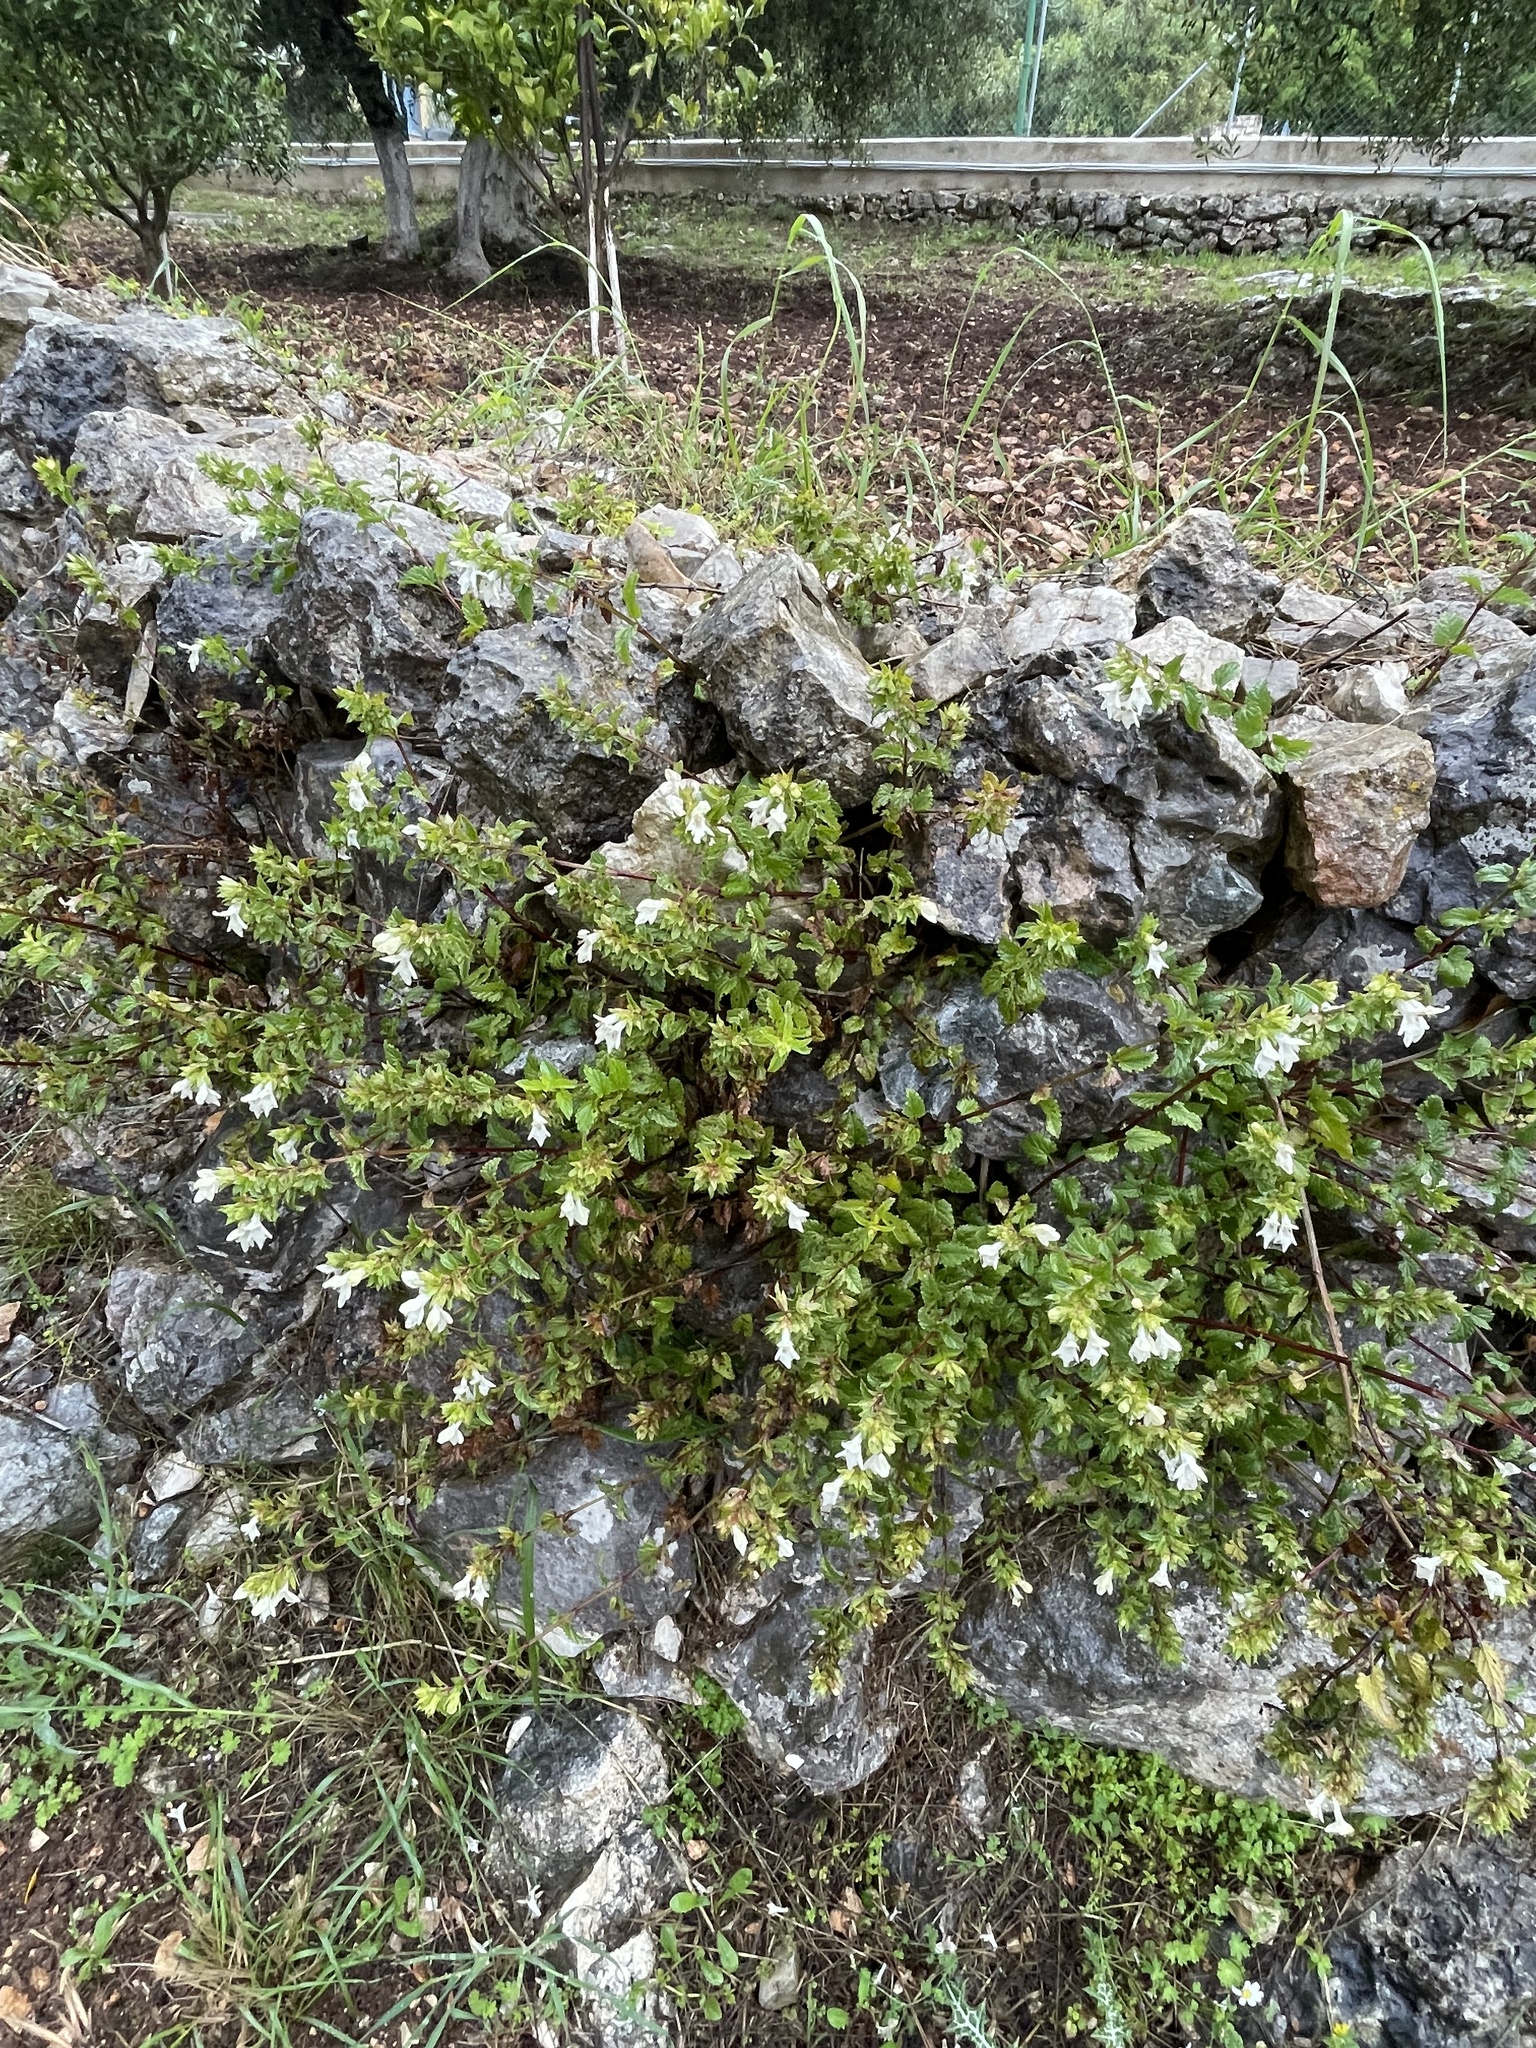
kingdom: Plantae
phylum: Tracheophyta
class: Magnoliopsida
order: Lamiales
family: Lamiaceae
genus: Prasium
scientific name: Prasium majus
